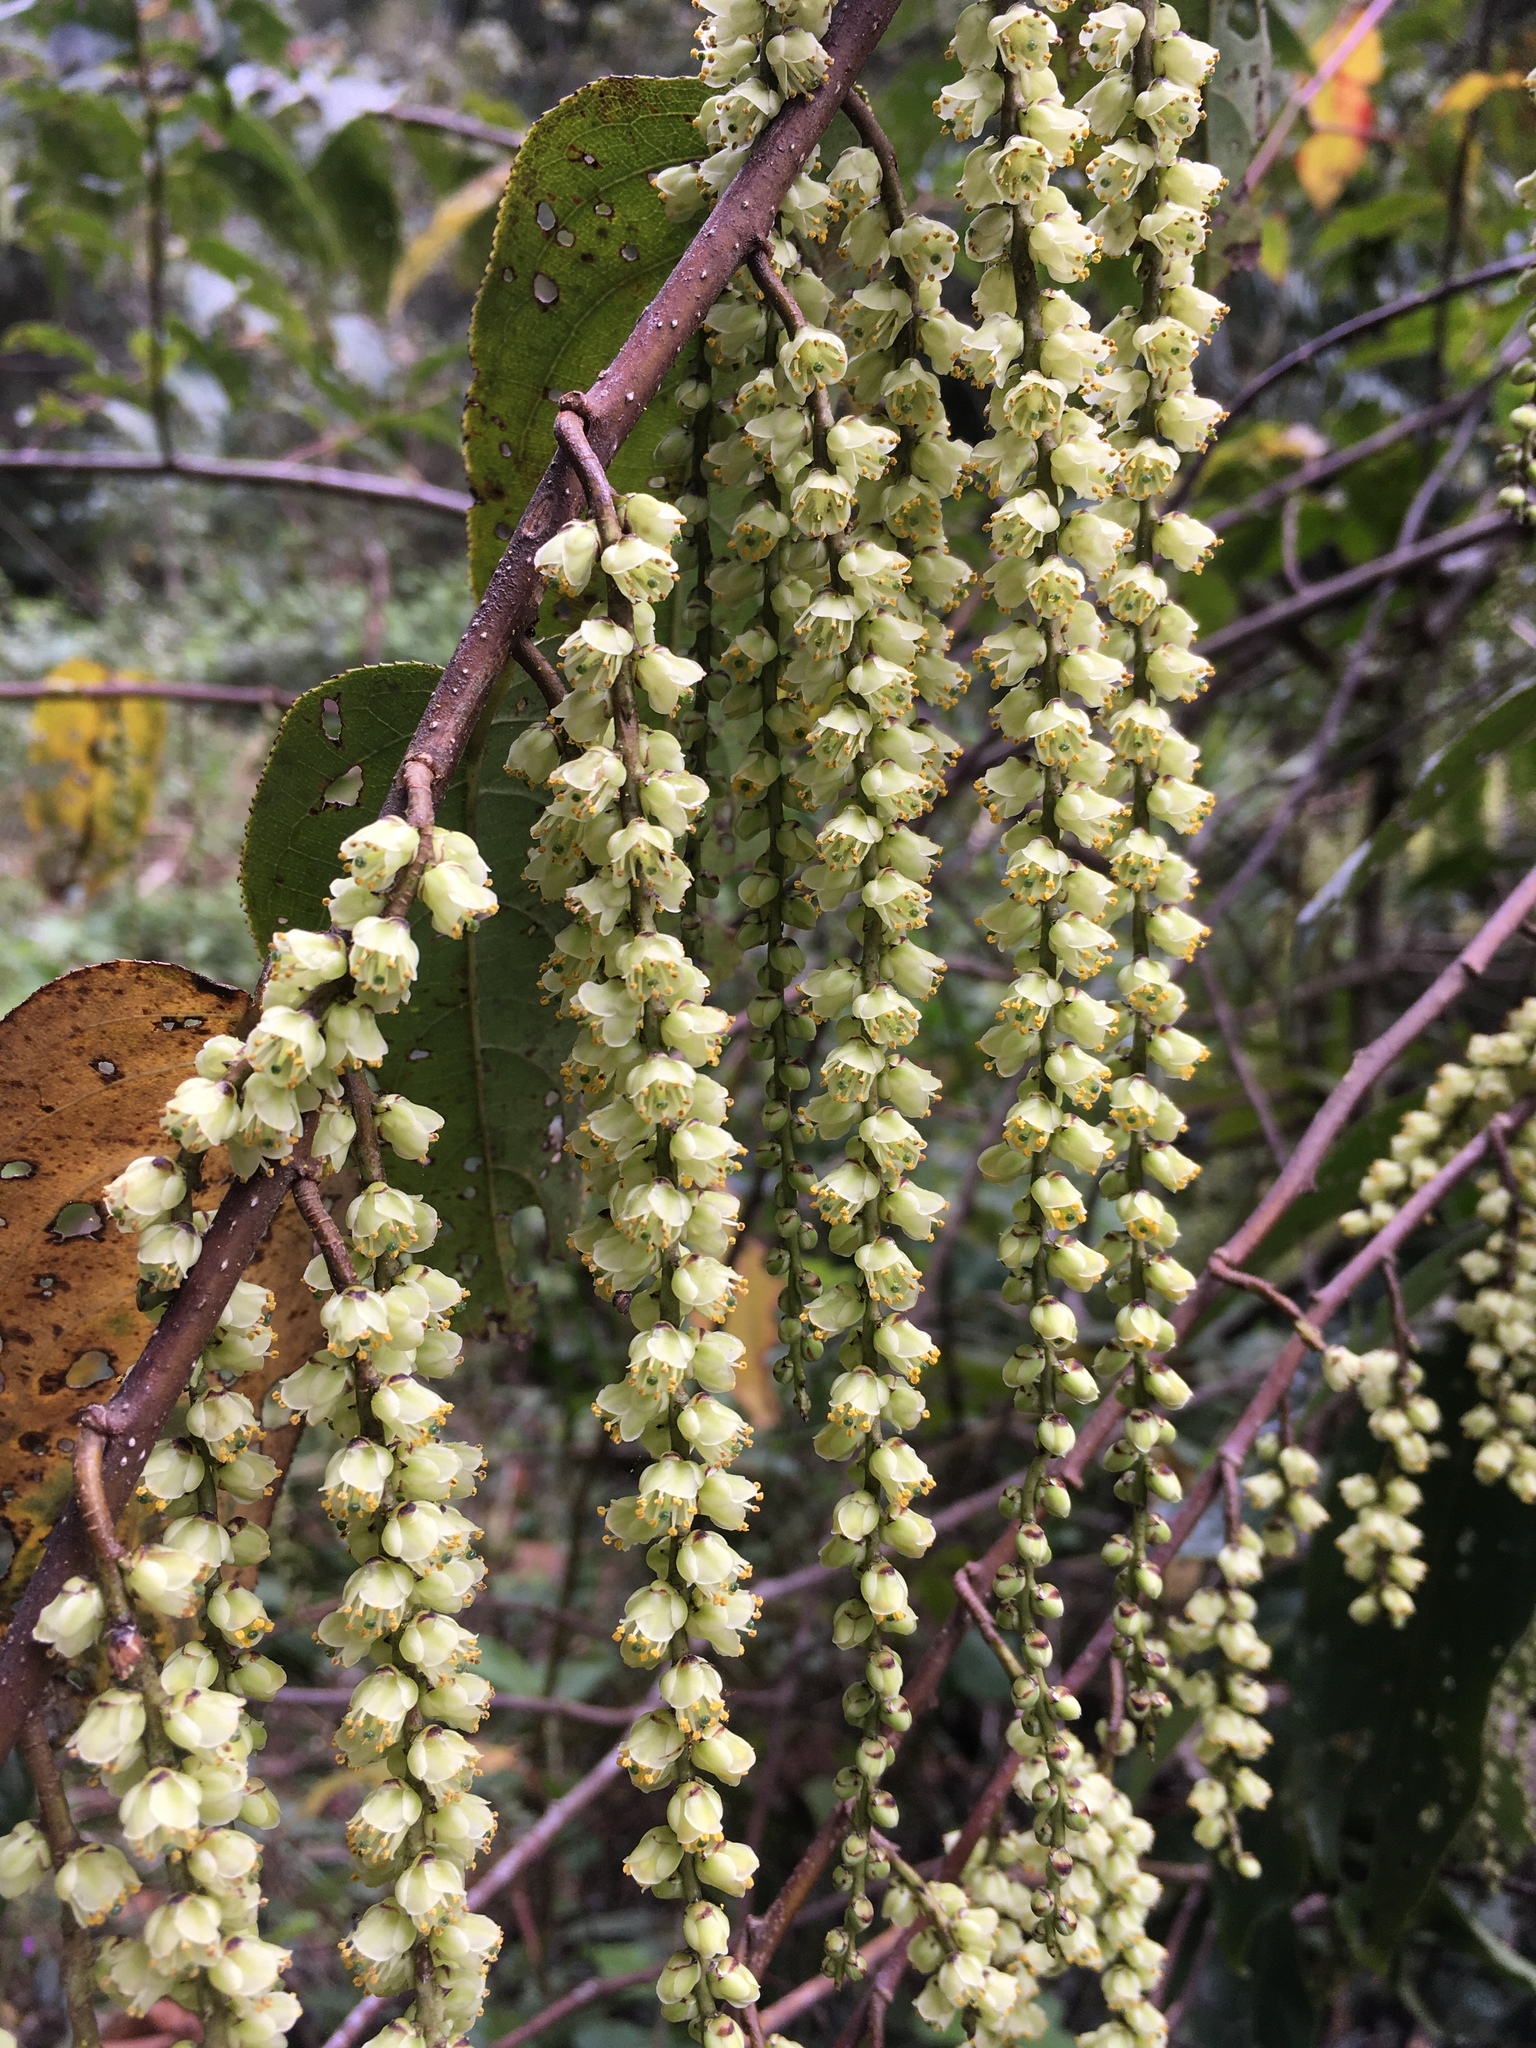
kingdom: Plantae
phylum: Tracheophyta
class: Magnoliopsida
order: Crossosomatales
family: Stachyuraceae
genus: Stachyurus
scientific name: Stachyurus himalaicus
